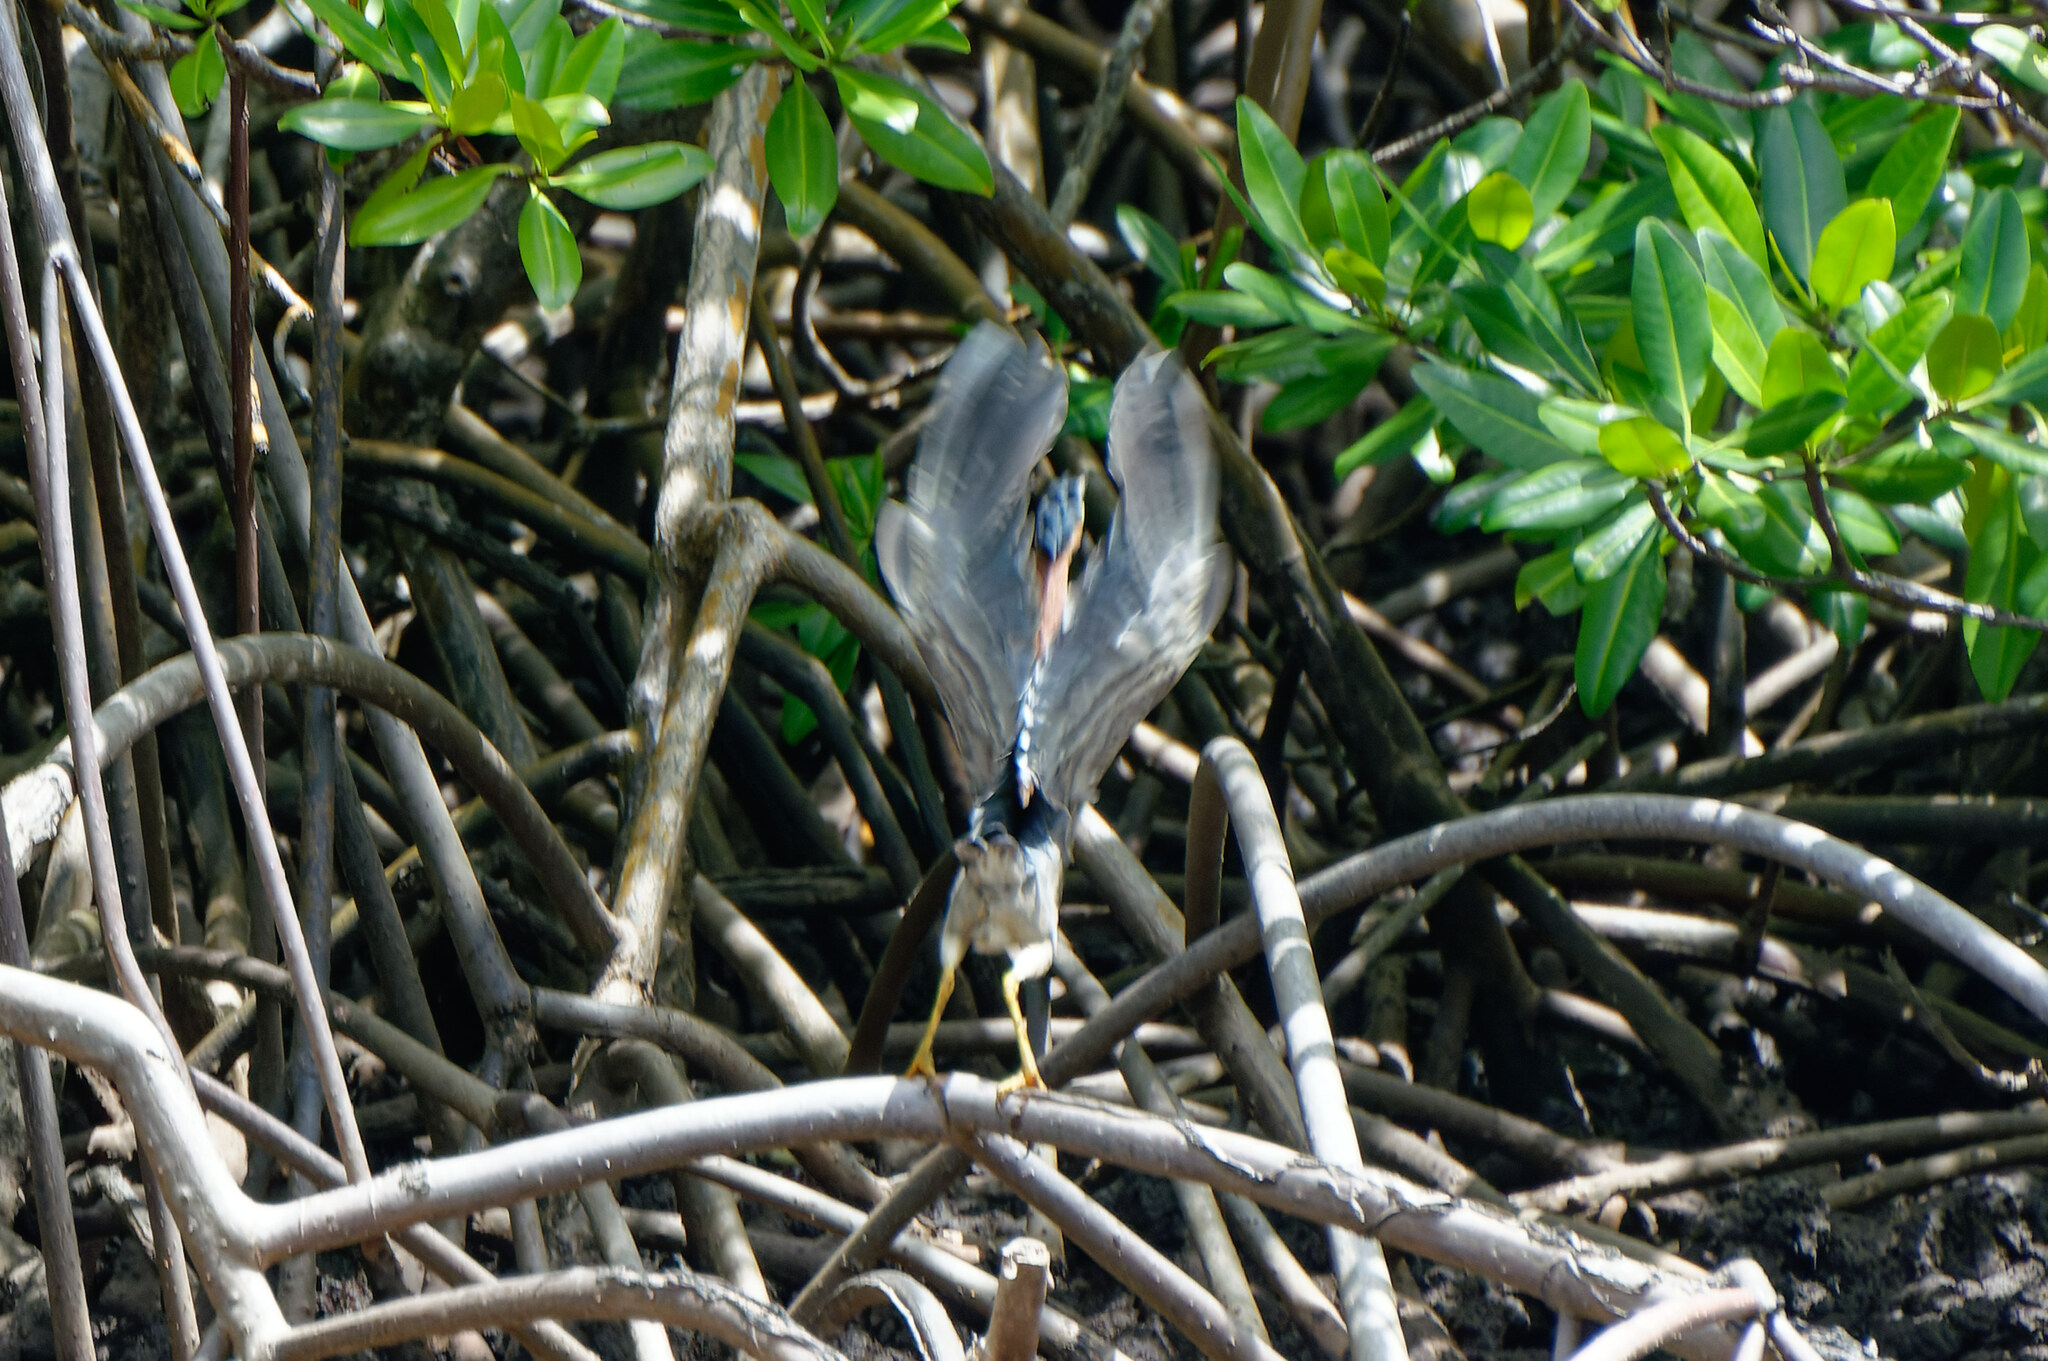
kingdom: Animalia
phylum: Chordata
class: Aves
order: Pelecaniformes
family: Ardeidae
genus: Butorides
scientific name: Butorides virescens
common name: Green heron
